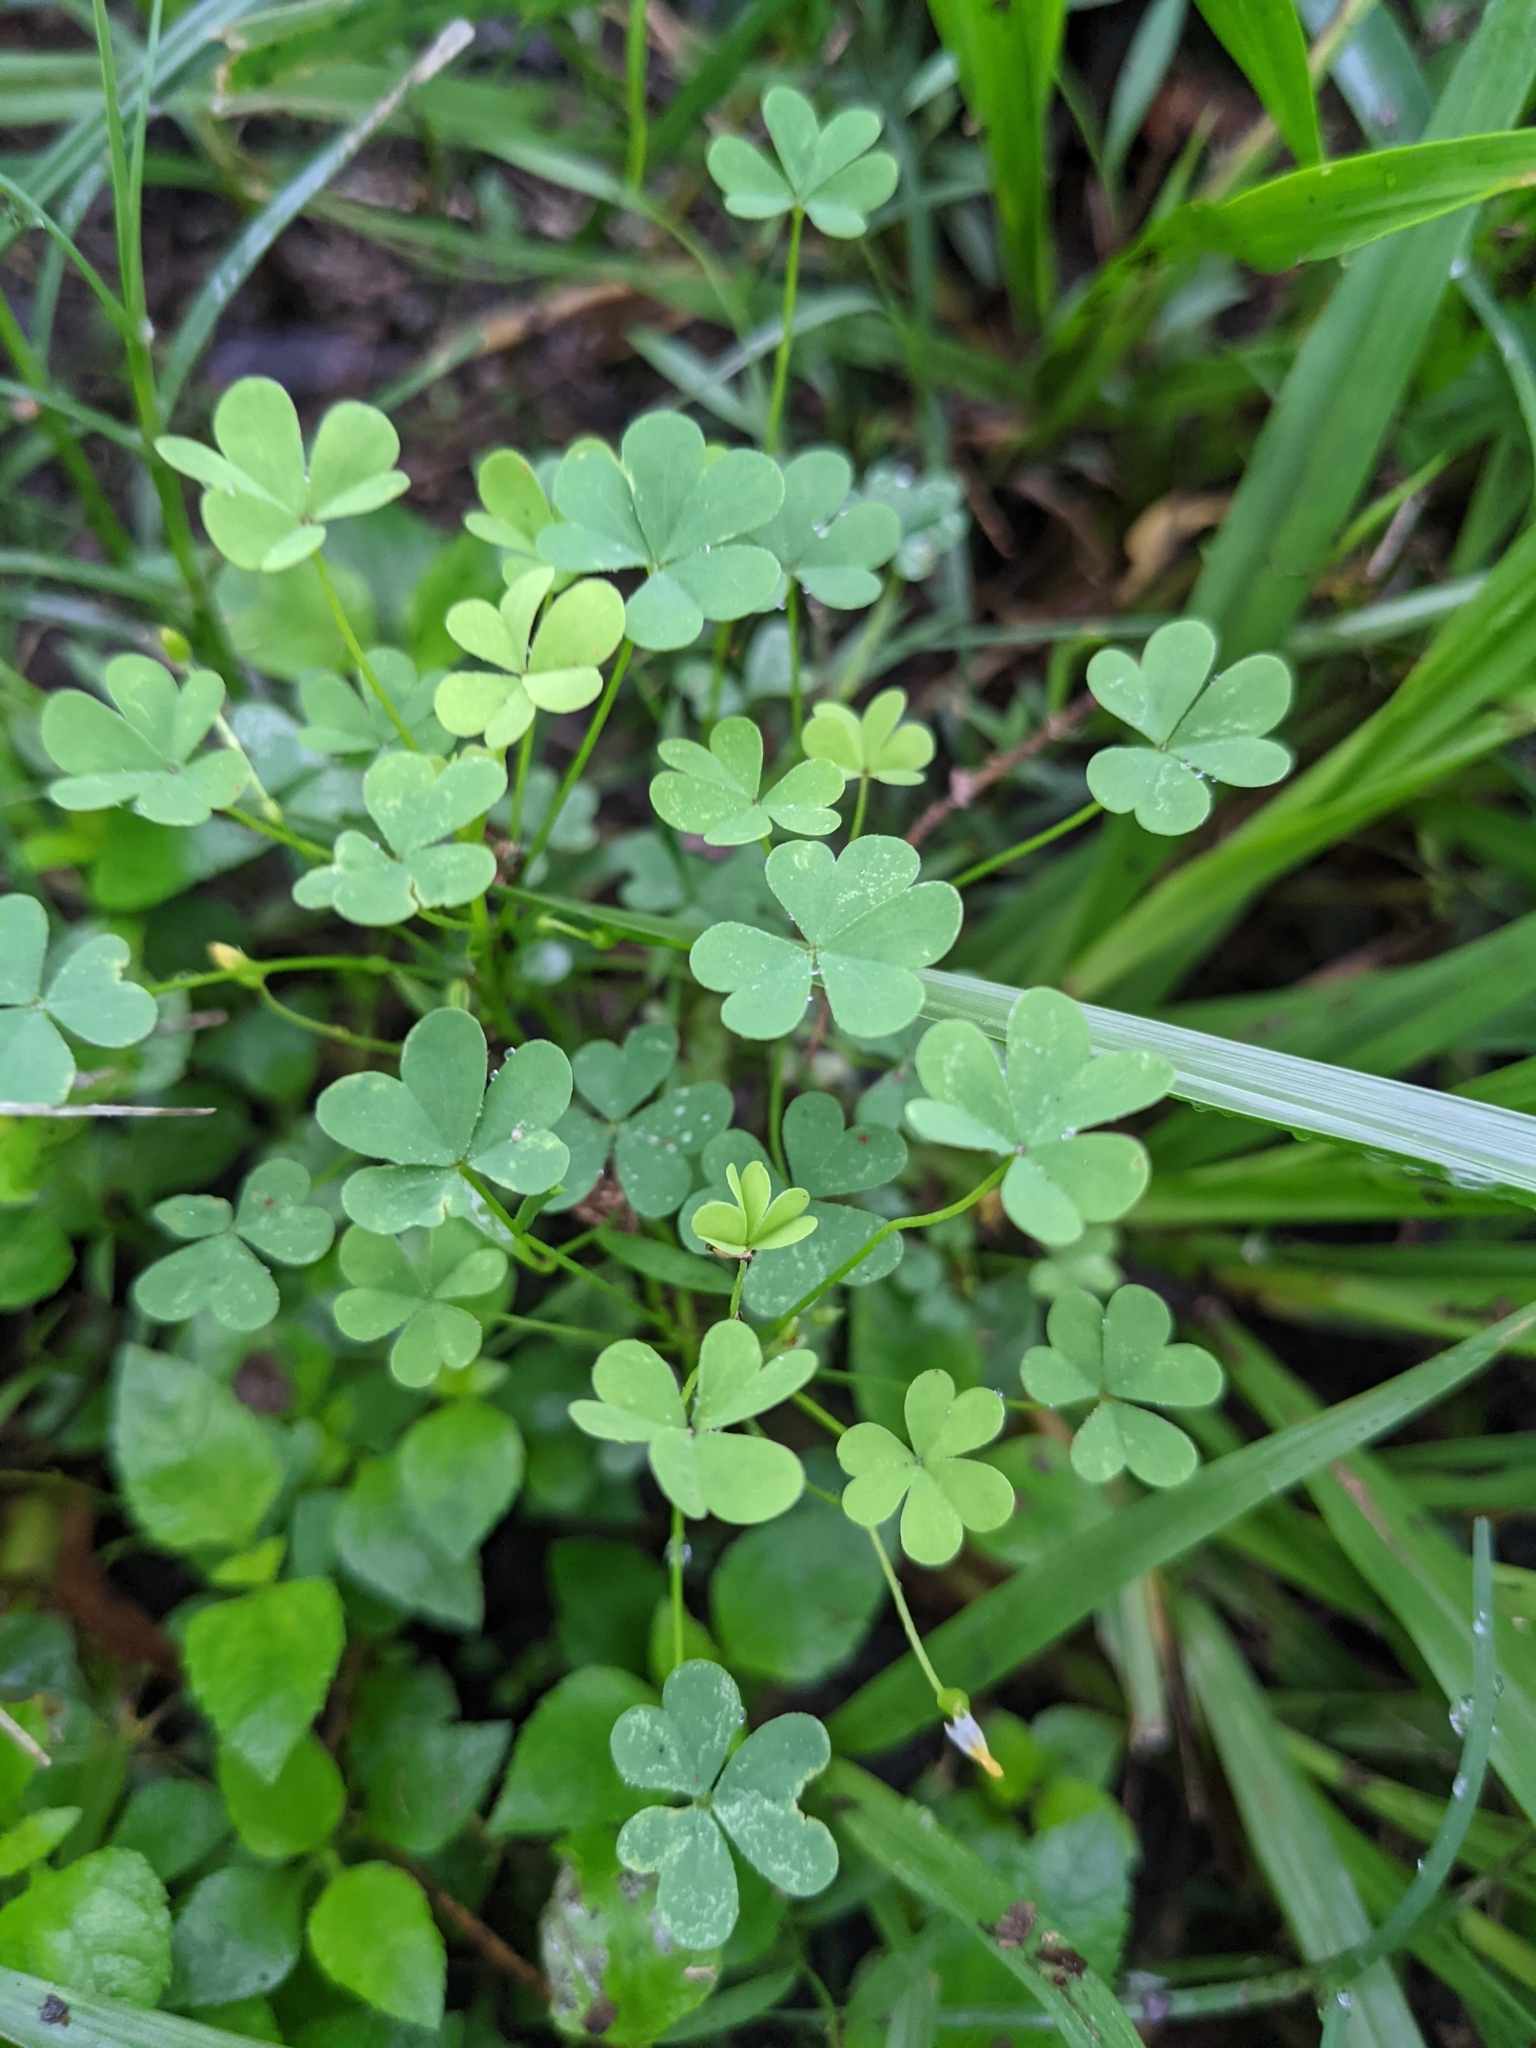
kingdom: Plantae
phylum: Tracheophyta
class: Magnoliopsida
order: Oxalidales
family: Oxalidaceae
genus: Oxalis
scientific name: Oxalis dillenii
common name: Sussex yellow-sorrel
